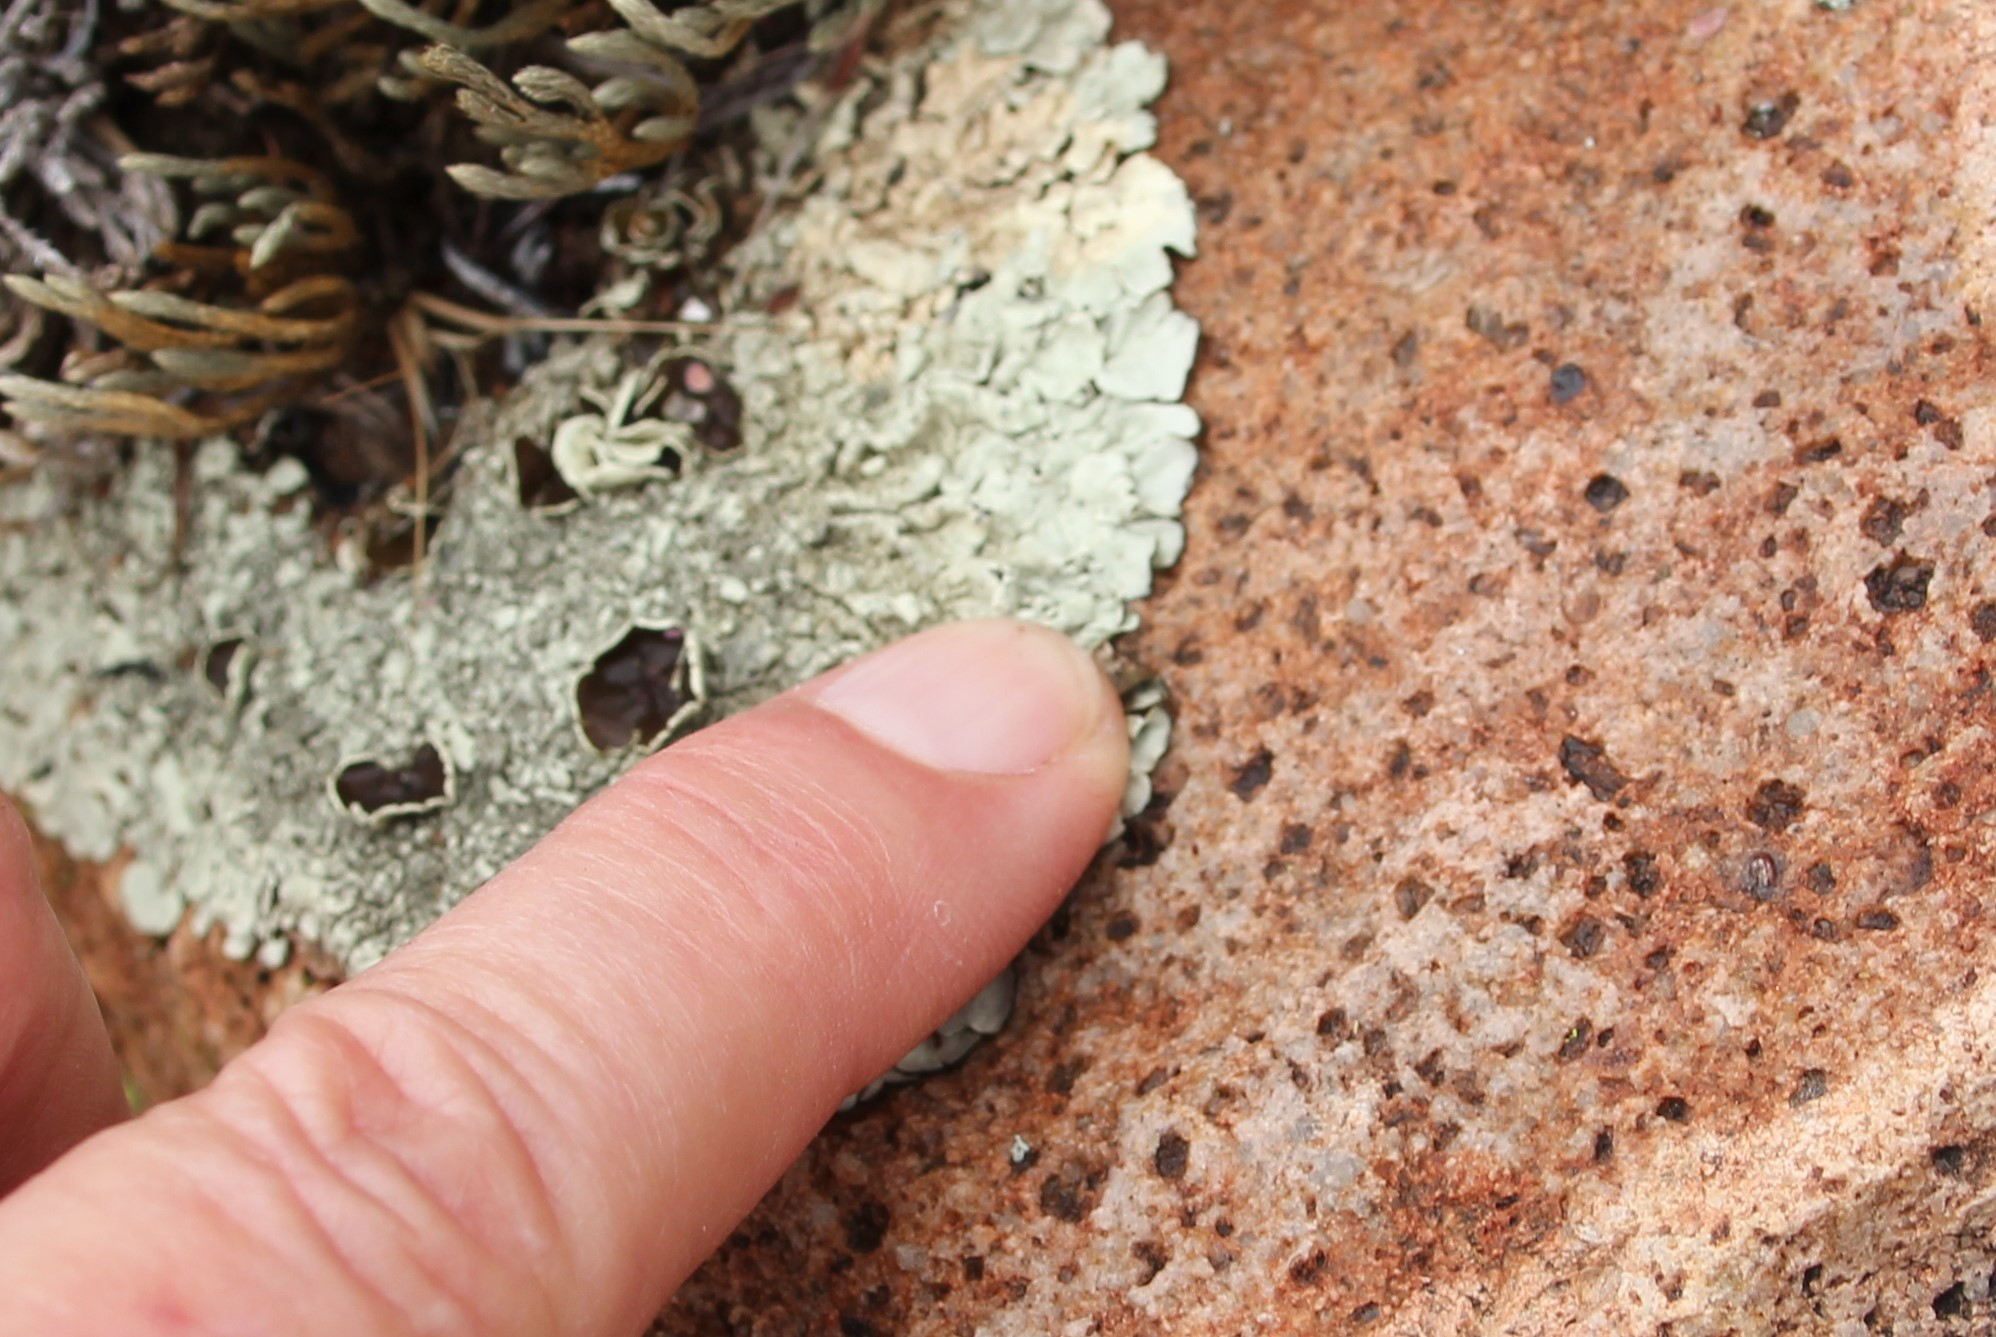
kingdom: Fungi
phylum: Ascomycota
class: Lecanoromycetes
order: Lecanorales
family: Parmeliaceae
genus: Xanthoparmelia
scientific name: Xanthoparmelia cumberlandia
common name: Cumberland rock shield
